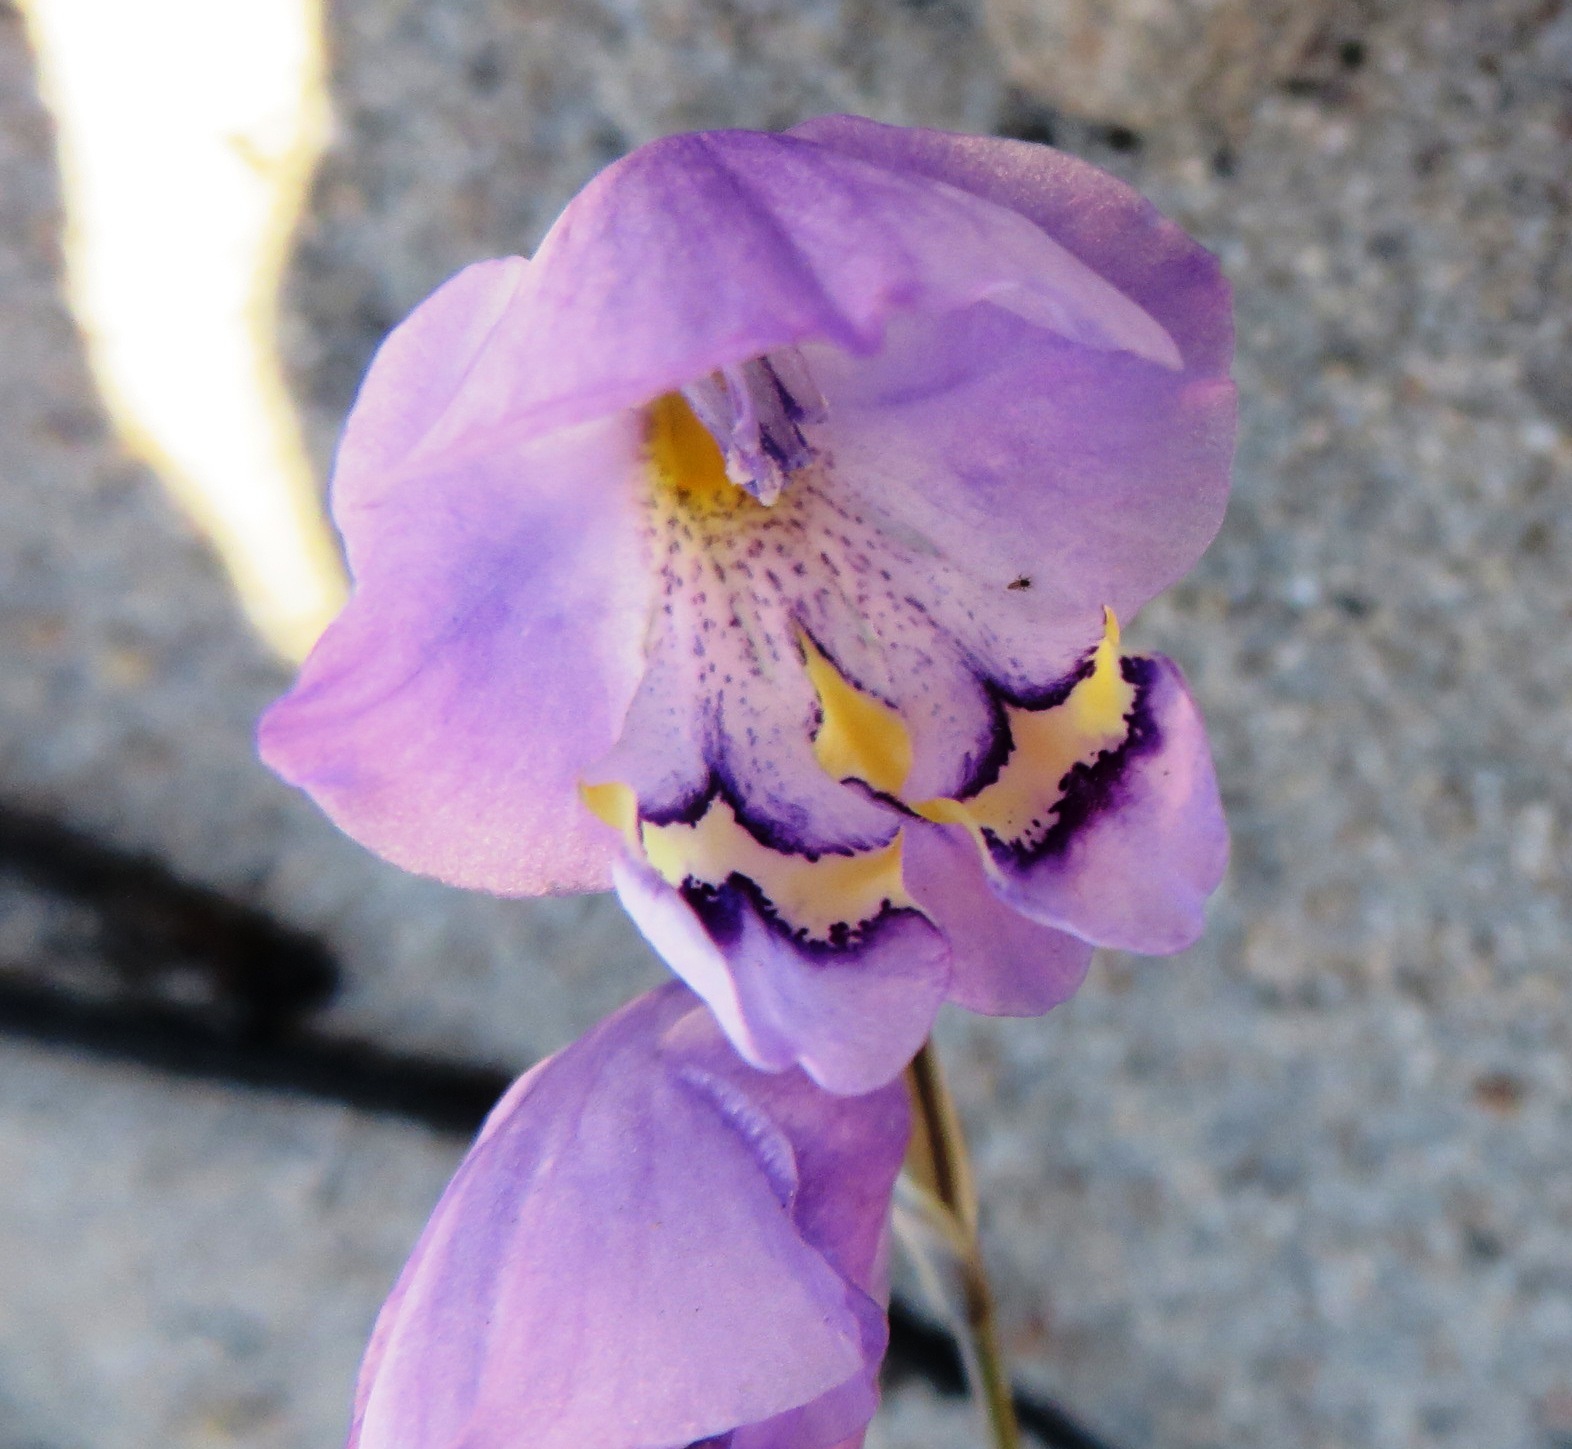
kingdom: Plantae
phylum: Tracheophyta
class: Liliopsida
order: Asparagales
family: Iridaceae
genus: Gladiolus
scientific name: Gladiolus rogersii
